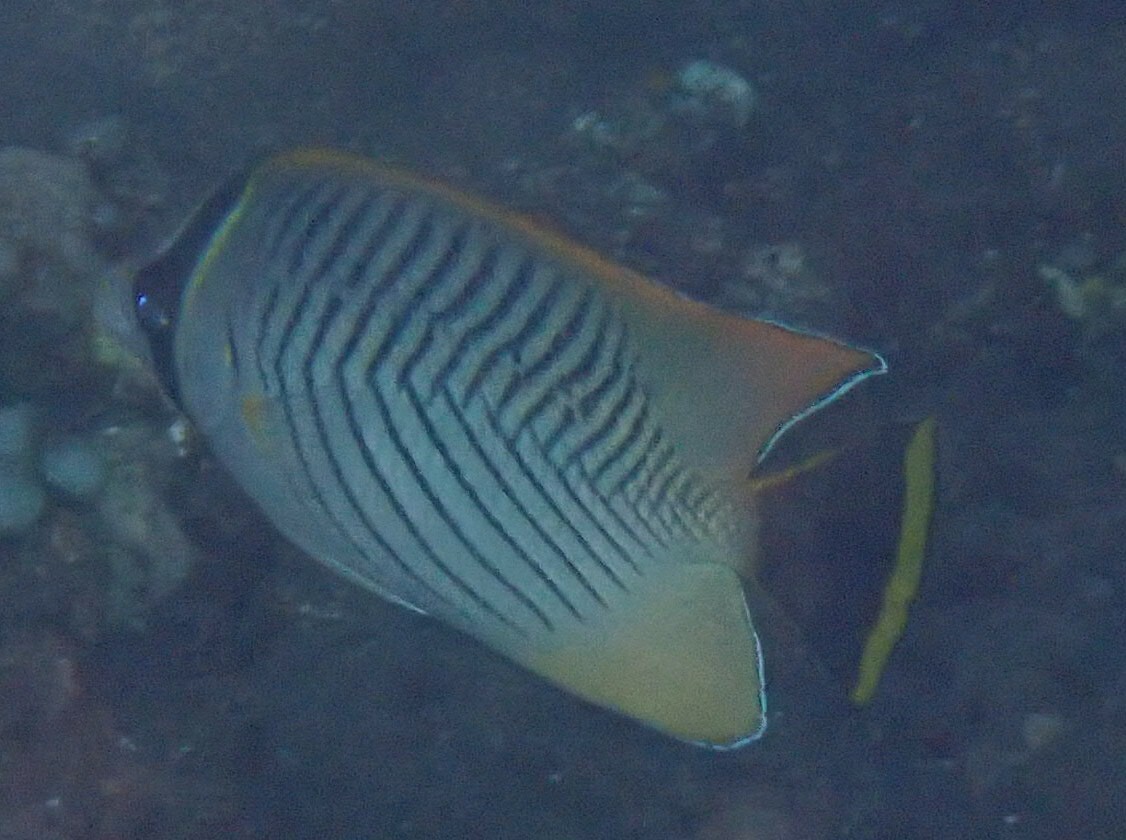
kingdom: Animalia
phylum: Chordata
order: Perciformes
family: Chaetodontidae
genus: Chaetodon
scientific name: Chaetodon trifascialis
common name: Chevroned butterflyfish
